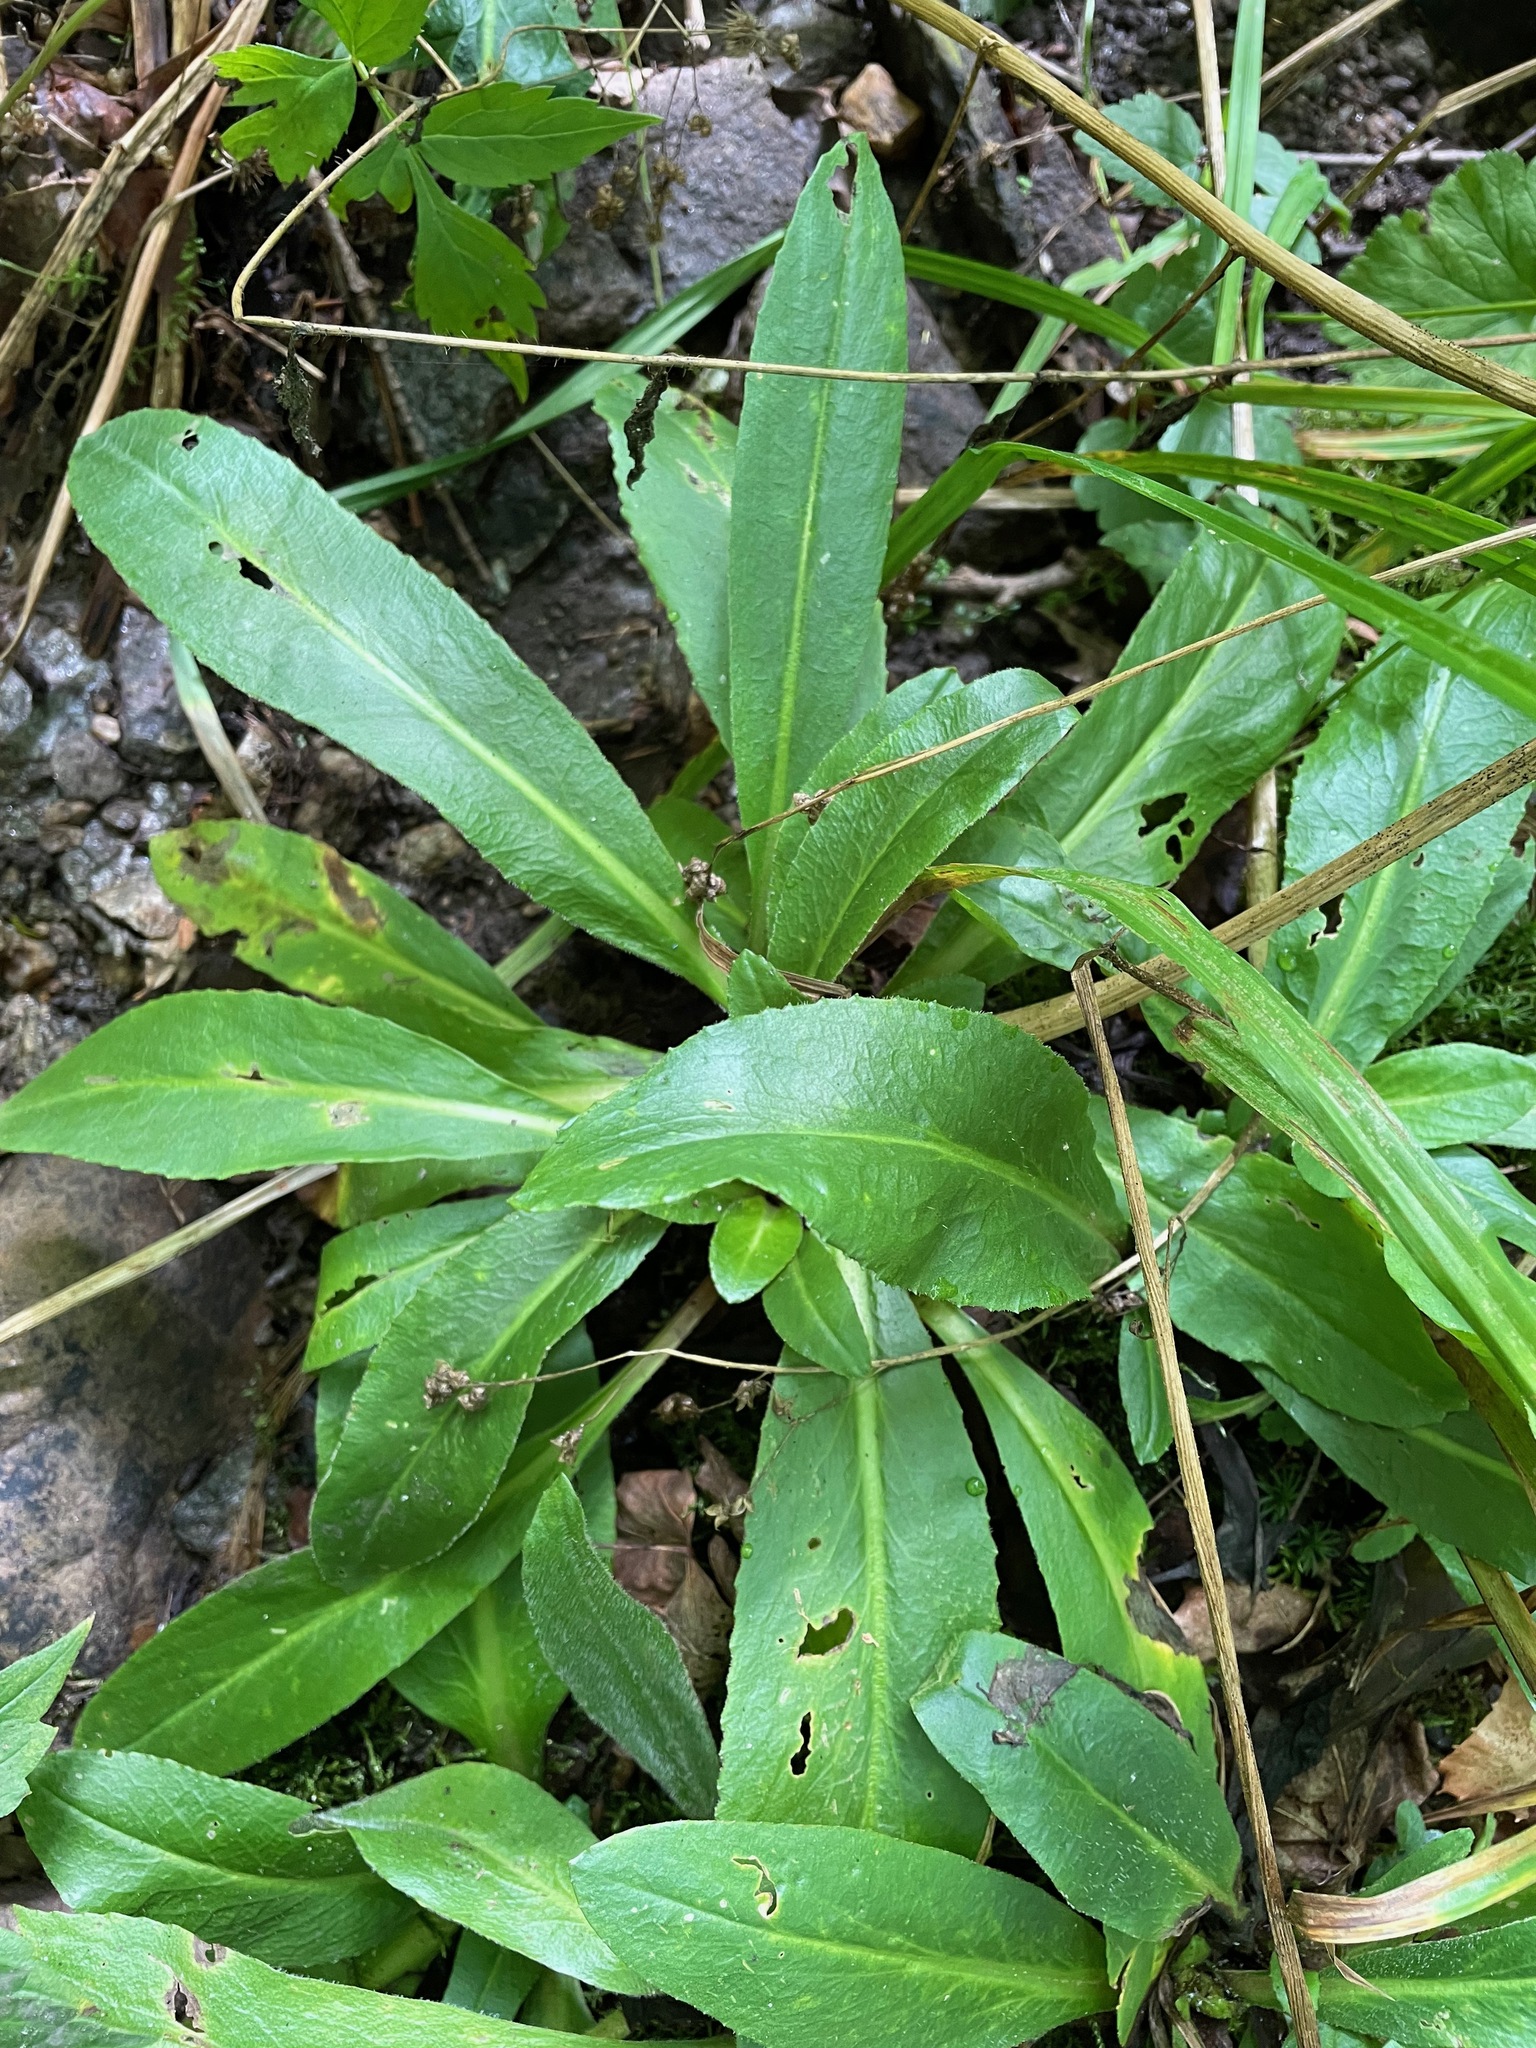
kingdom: Plantae
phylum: Tracheophyta
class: Magnoliopsida
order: Saxifragales
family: Saxifragaceae
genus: Micranthes
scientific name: Micranthes pensylvanica
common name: Marsh saxifrage
